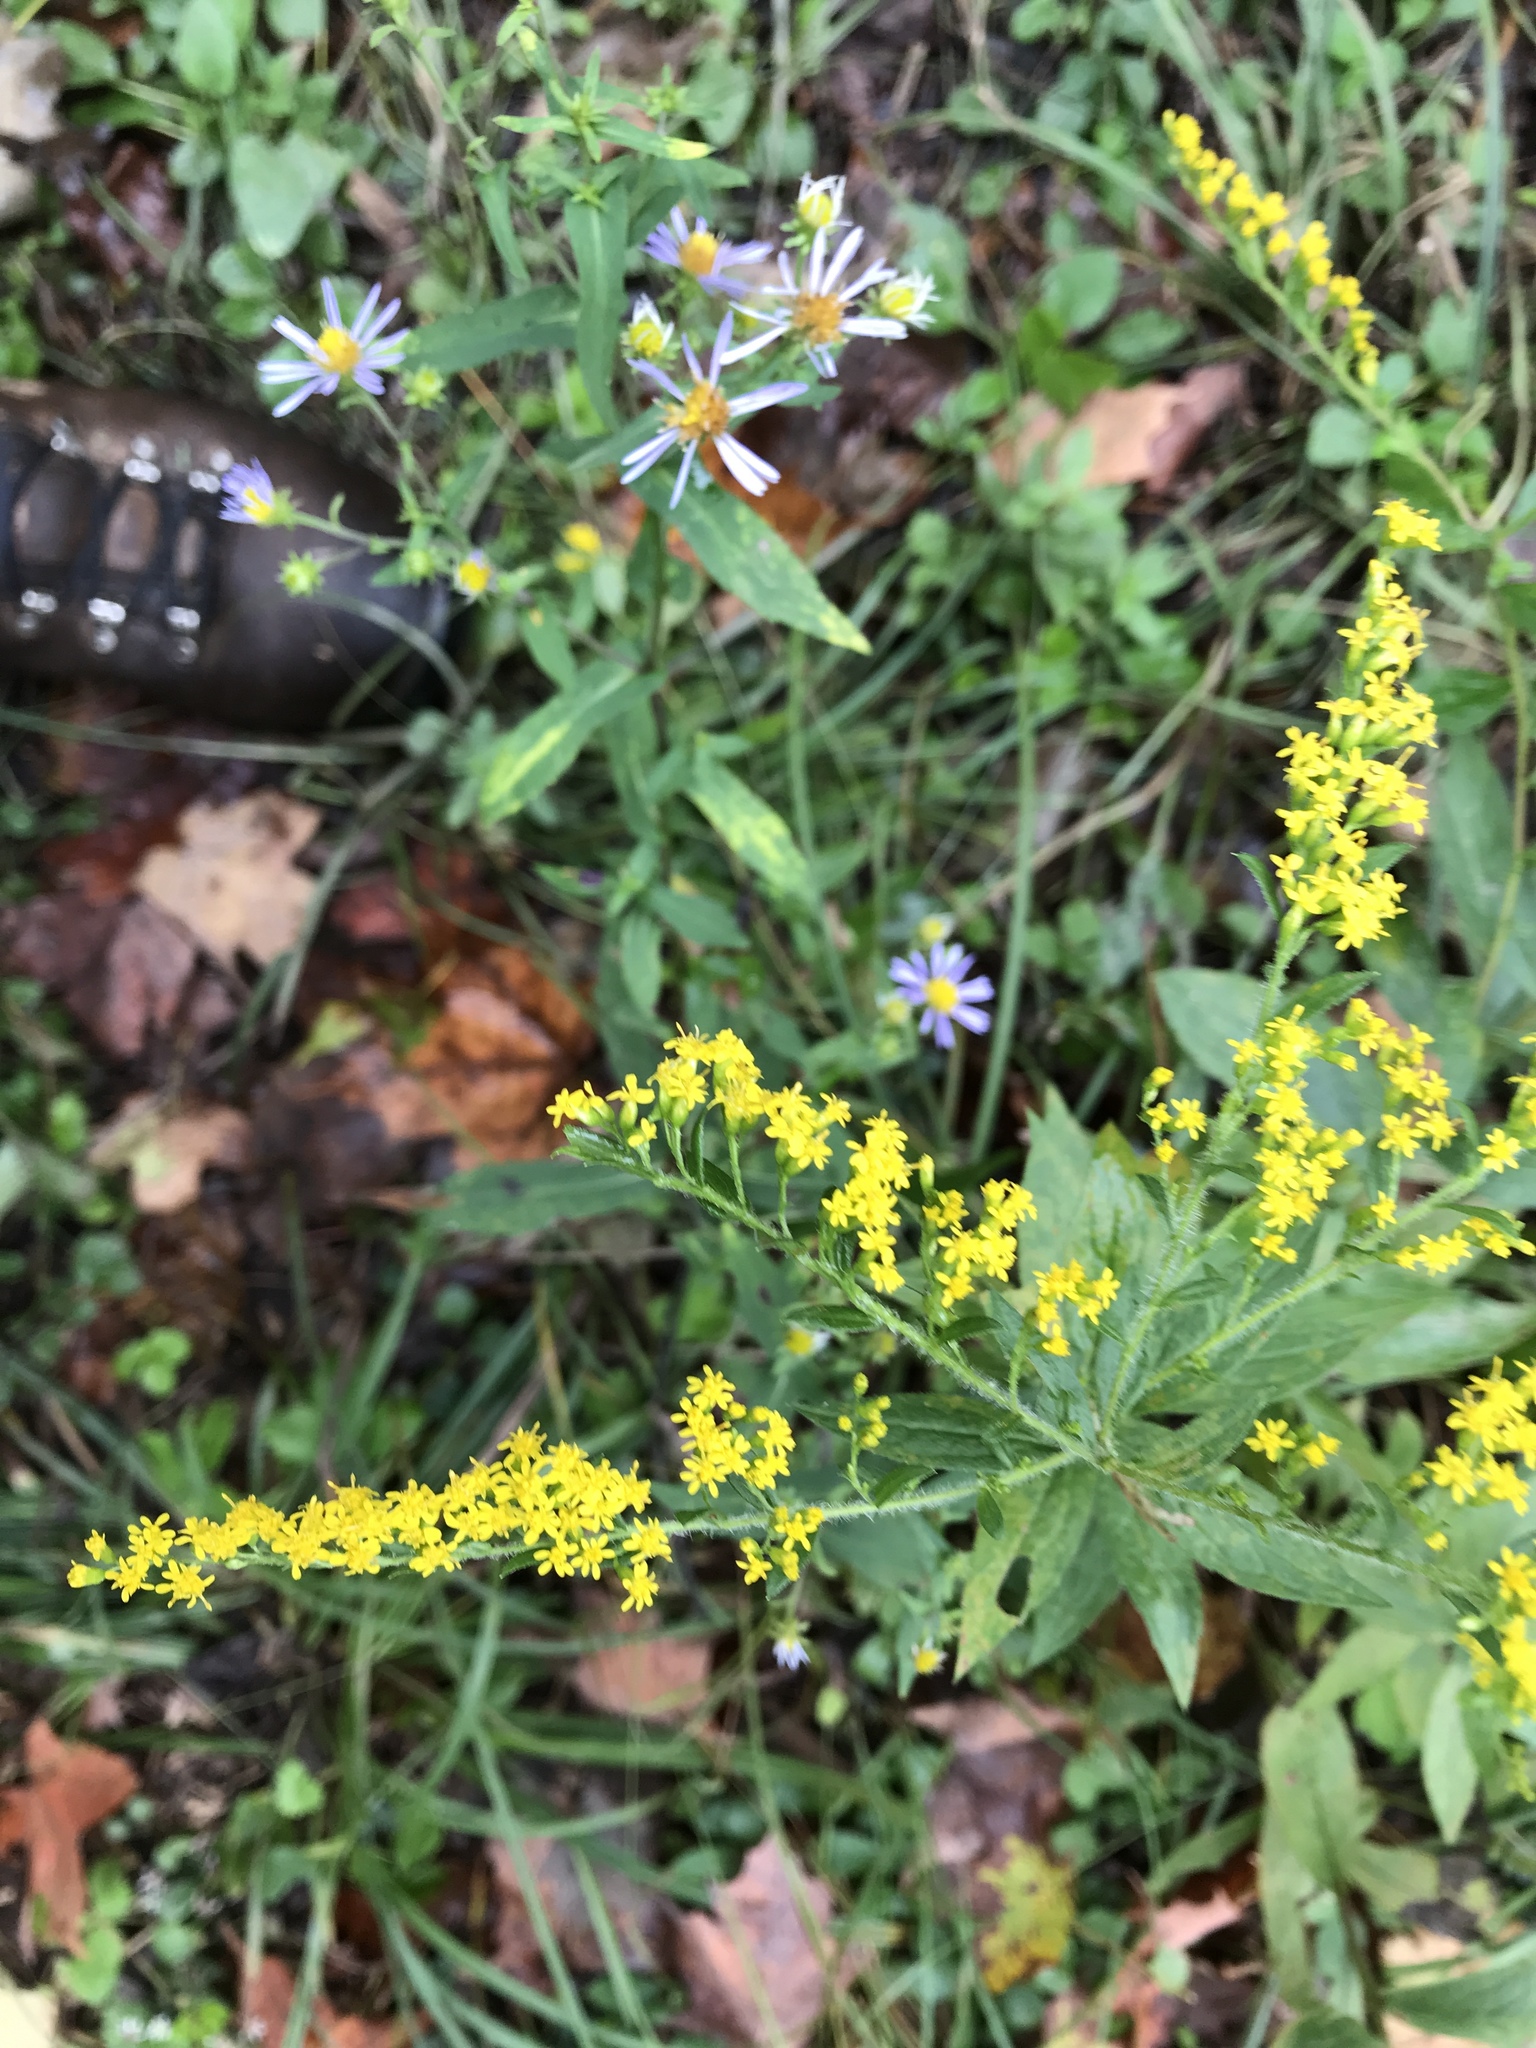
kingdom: Plantae
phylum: Tracheophyta
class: Magnoliopsida
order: Asterales
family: Asteraceae
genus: Solidago
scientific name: Solidago rugosa
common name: Rough-stemmed goldenrod
